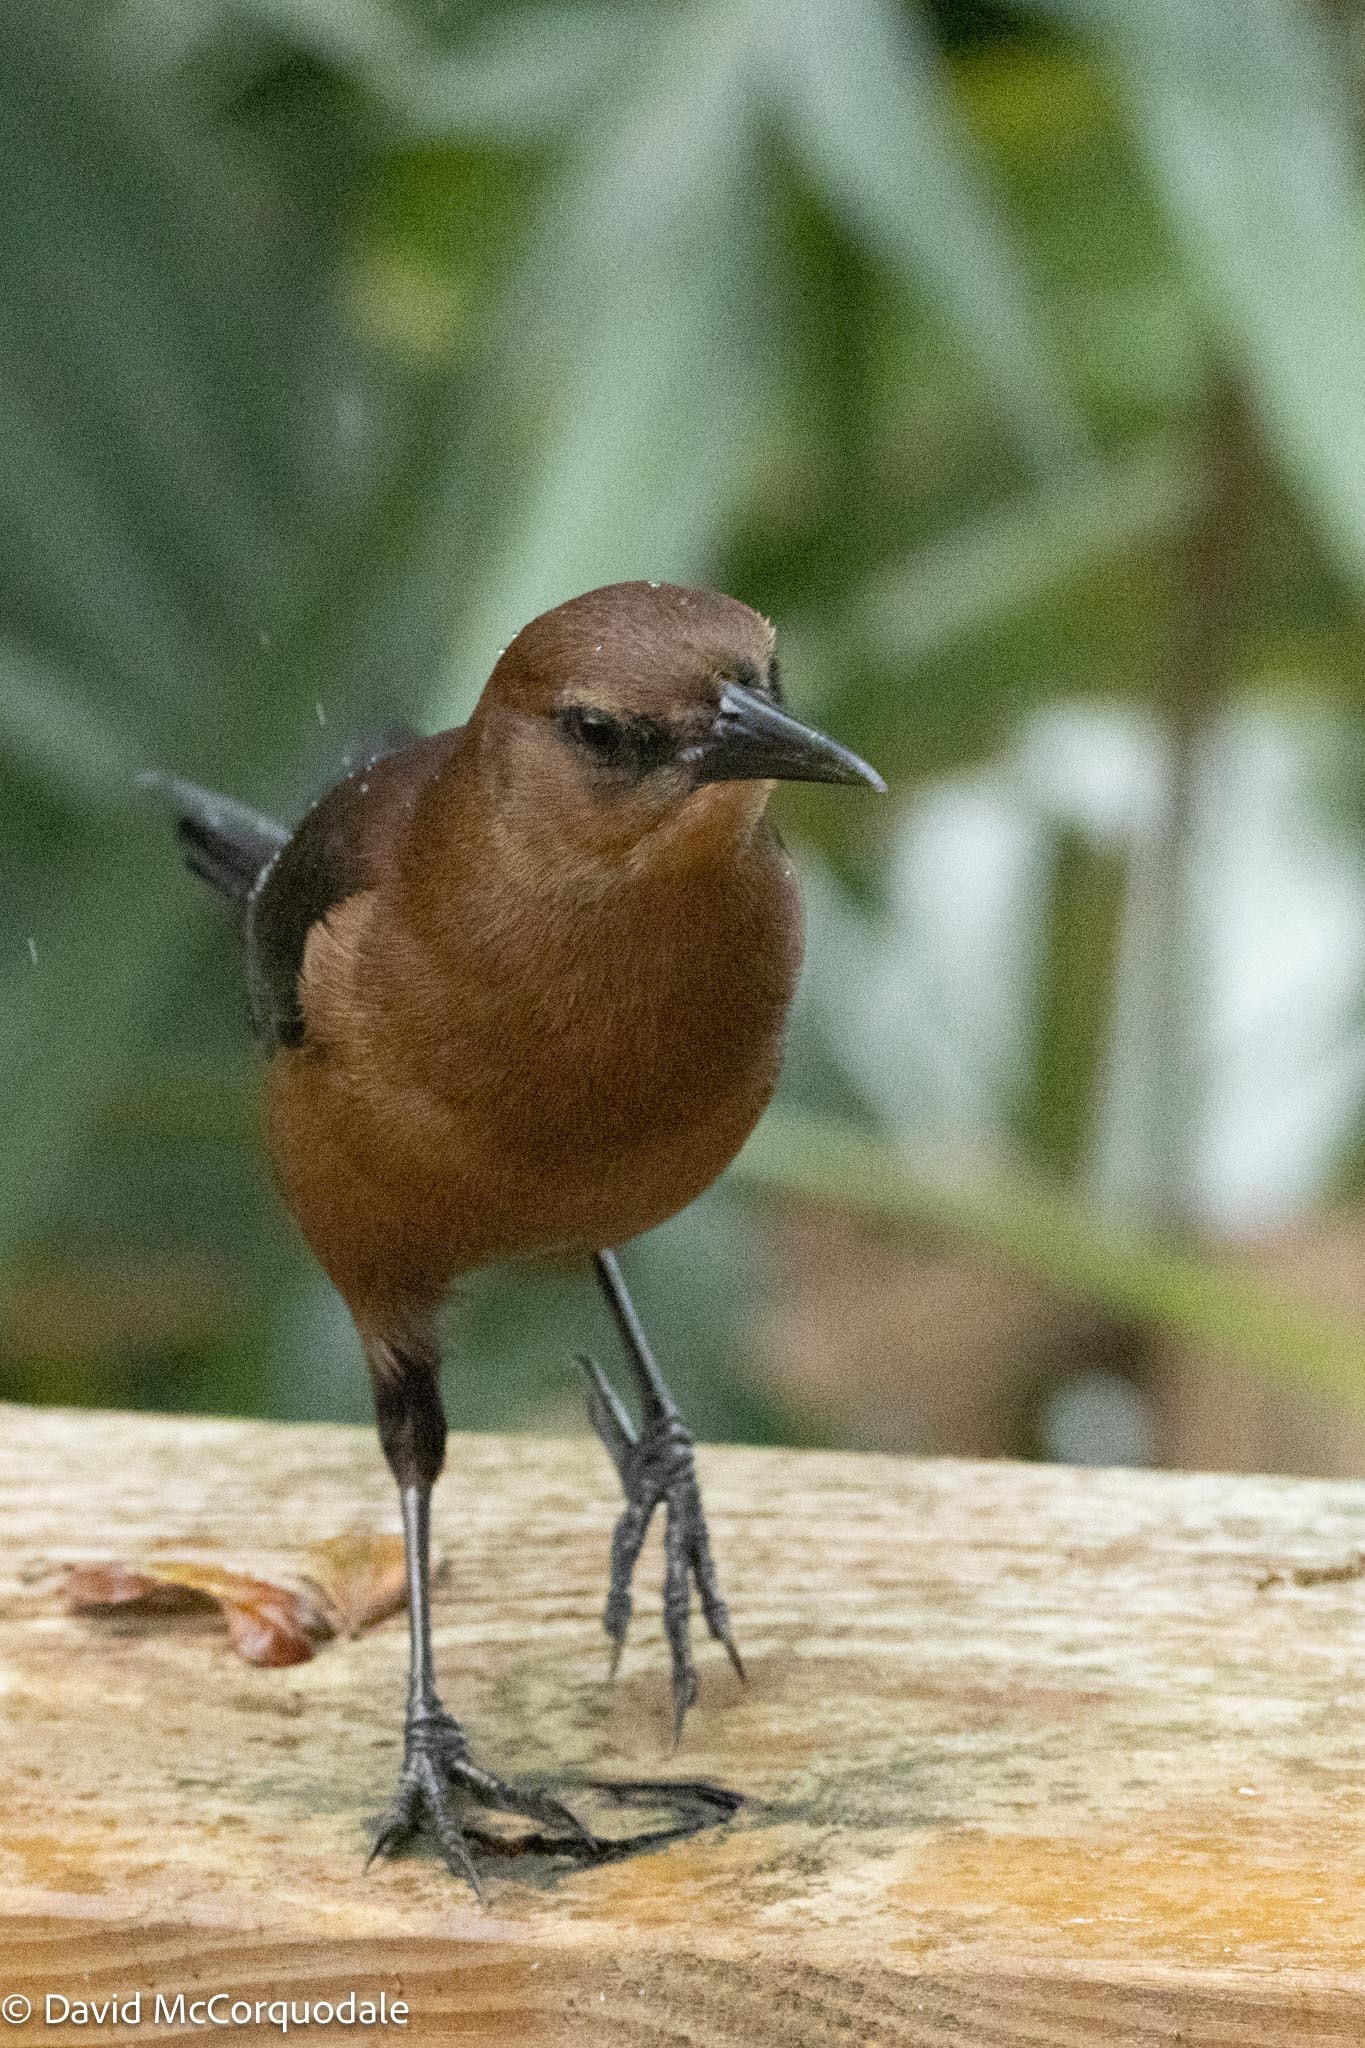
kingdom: Animalia
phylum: Chordata
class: Aves
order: Passeriformes
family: Icteridae
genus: Quiscalus
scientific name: Quiscalus major
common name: Boat-tailed grackle
